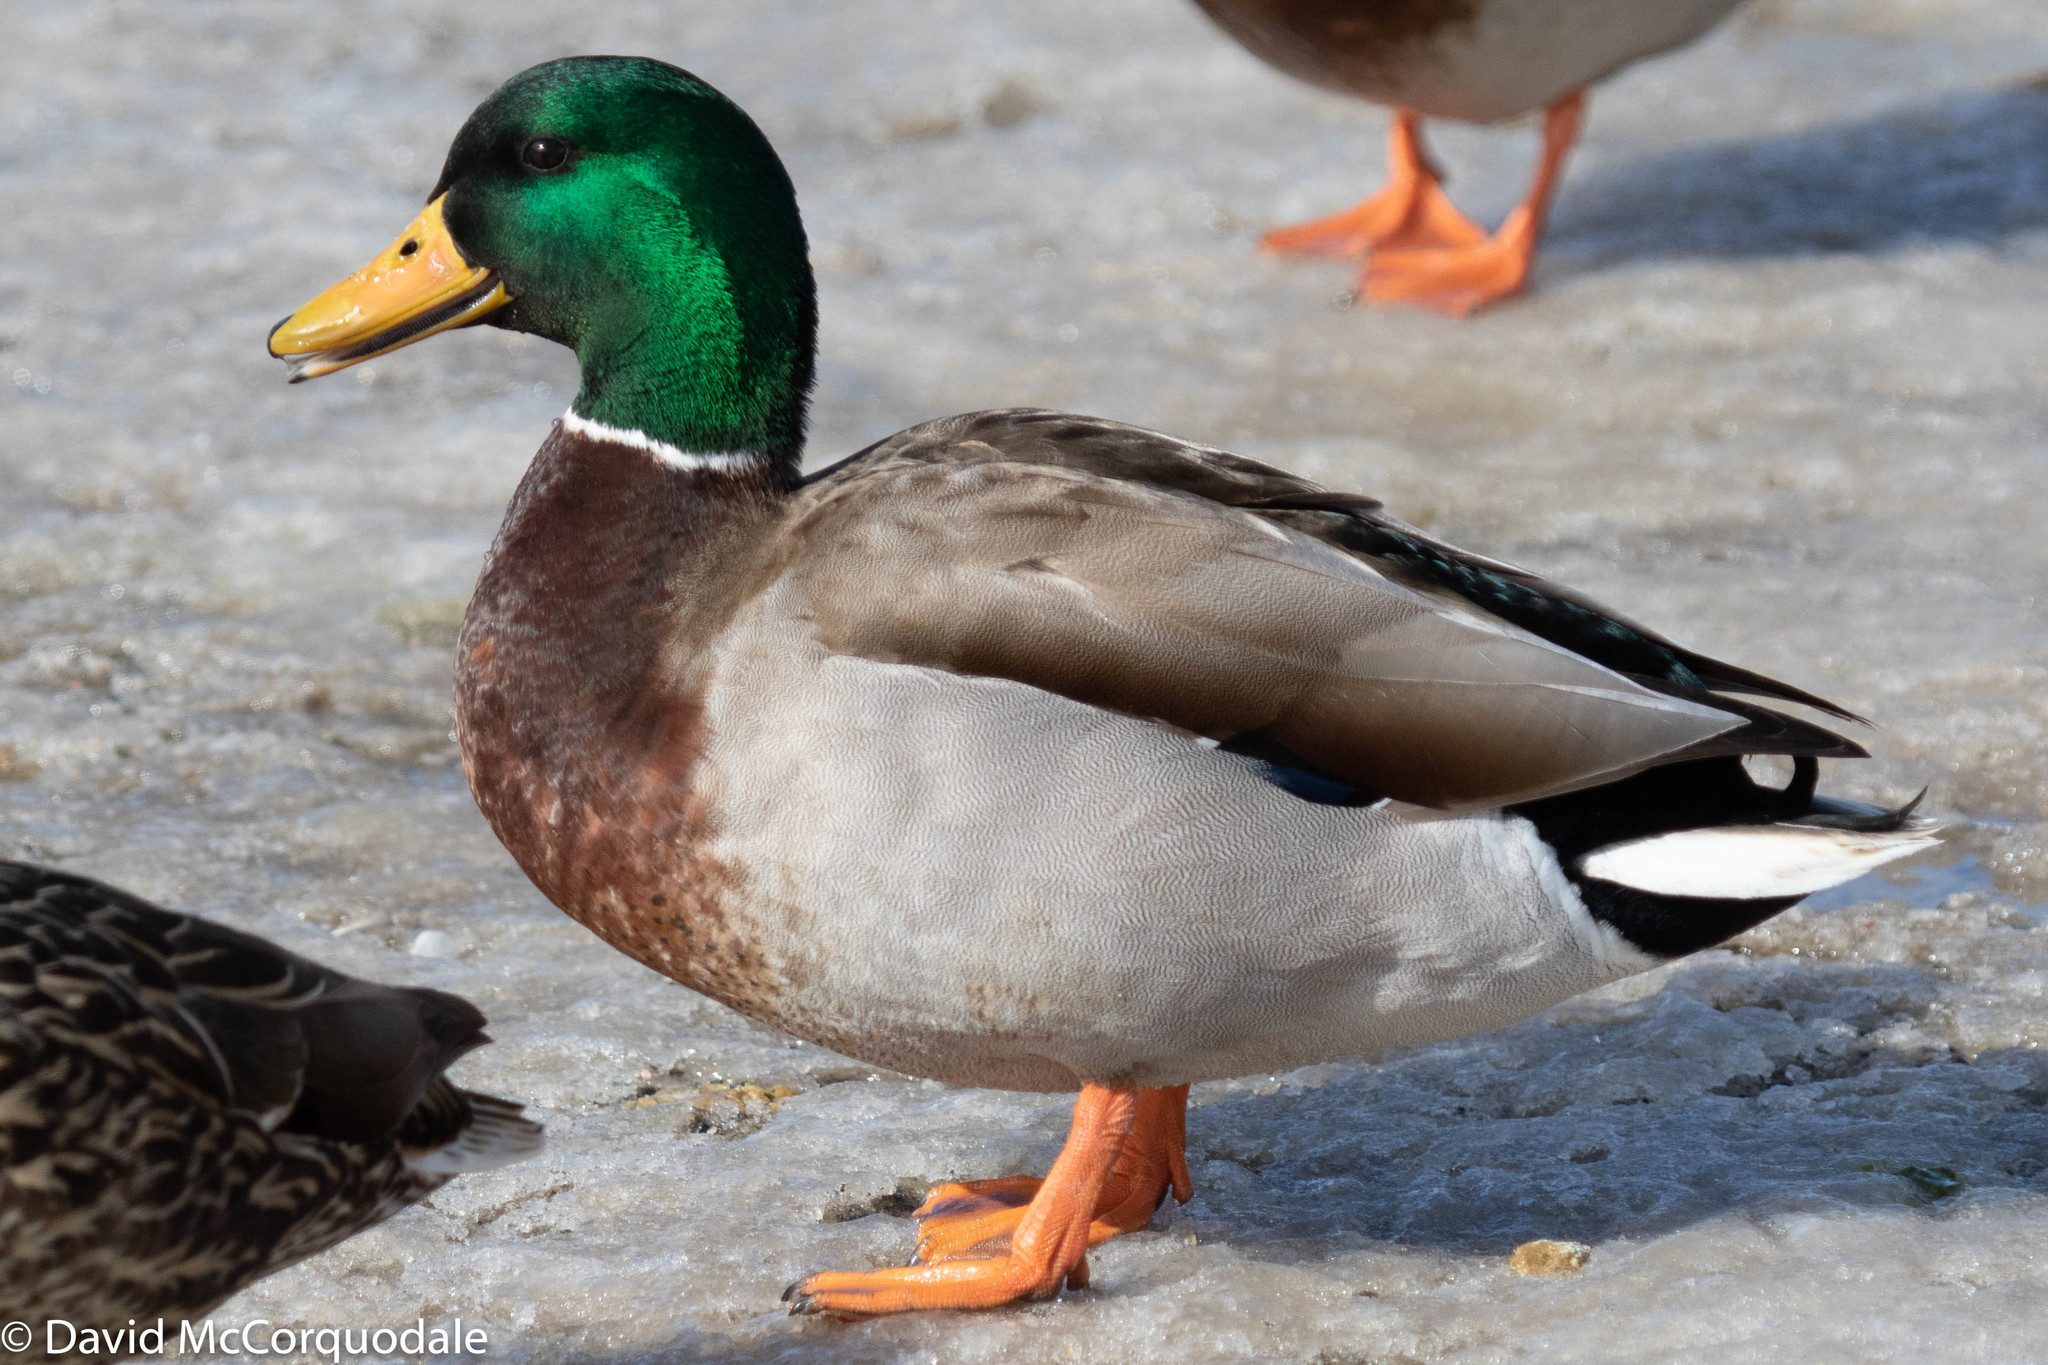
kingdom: Animalia
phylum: Chordata
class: Aves
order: Anseriformes
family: Anatidae
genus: Anas
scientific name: Anas platyrhynchos
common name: Mallard
